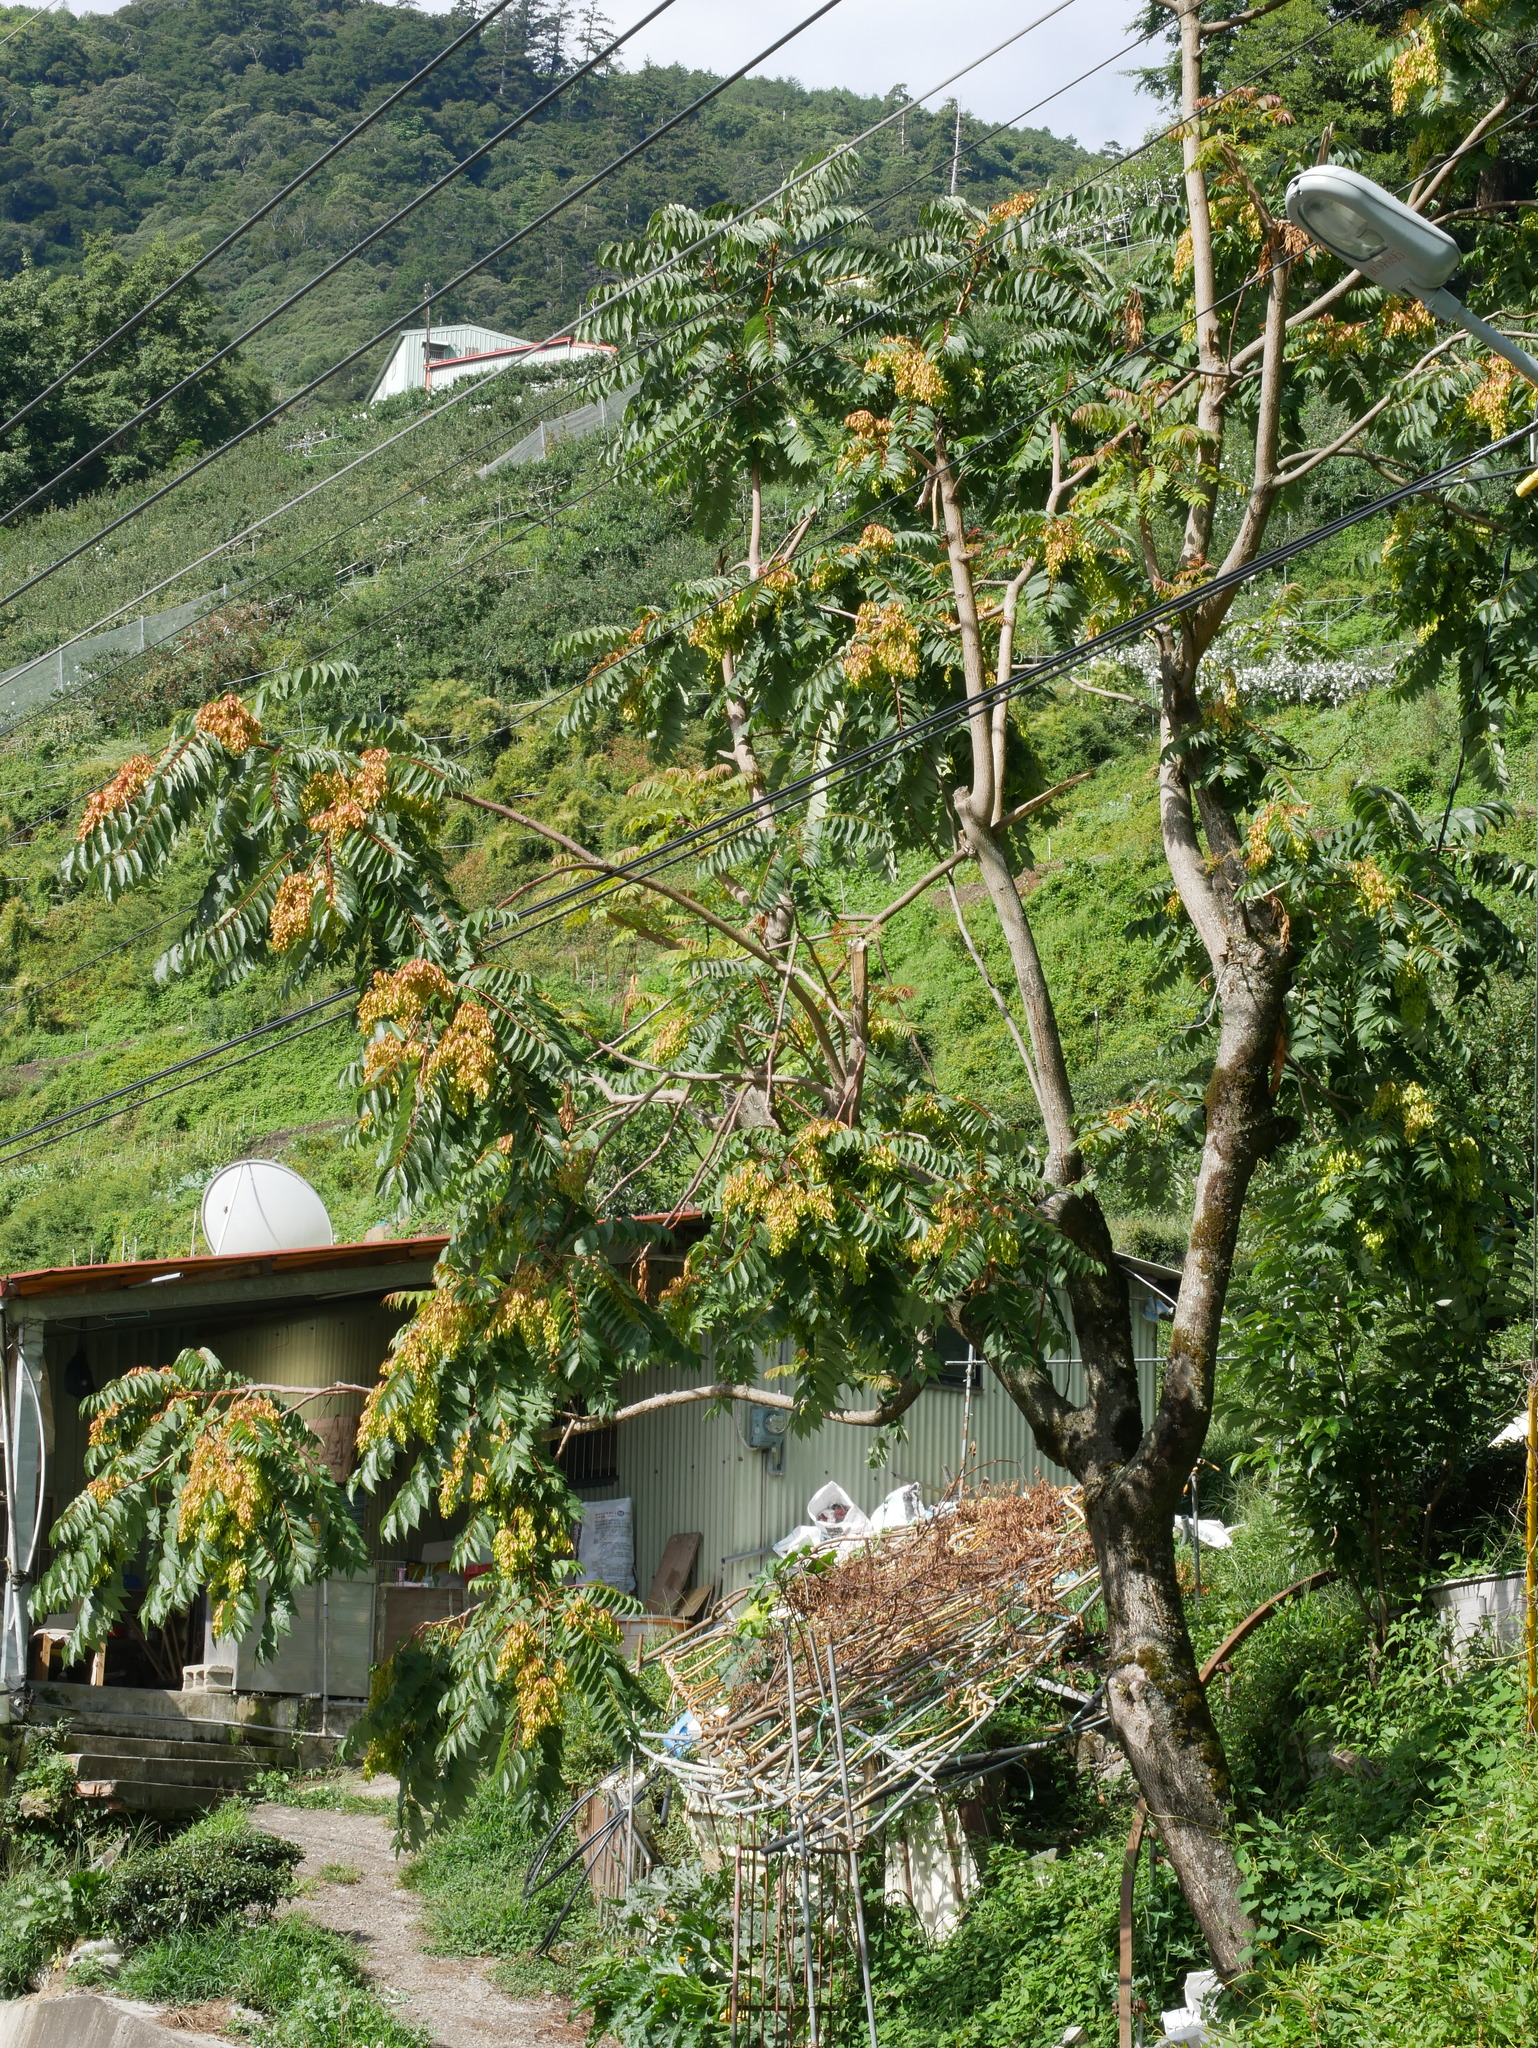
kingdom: Plantae
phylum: Tracheophyta
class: Magnoliopsida
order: Sapindales
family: Simaroubaceae
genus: Ailanthus
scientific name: Ailanthus altissima
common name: Tree-of-heaven
